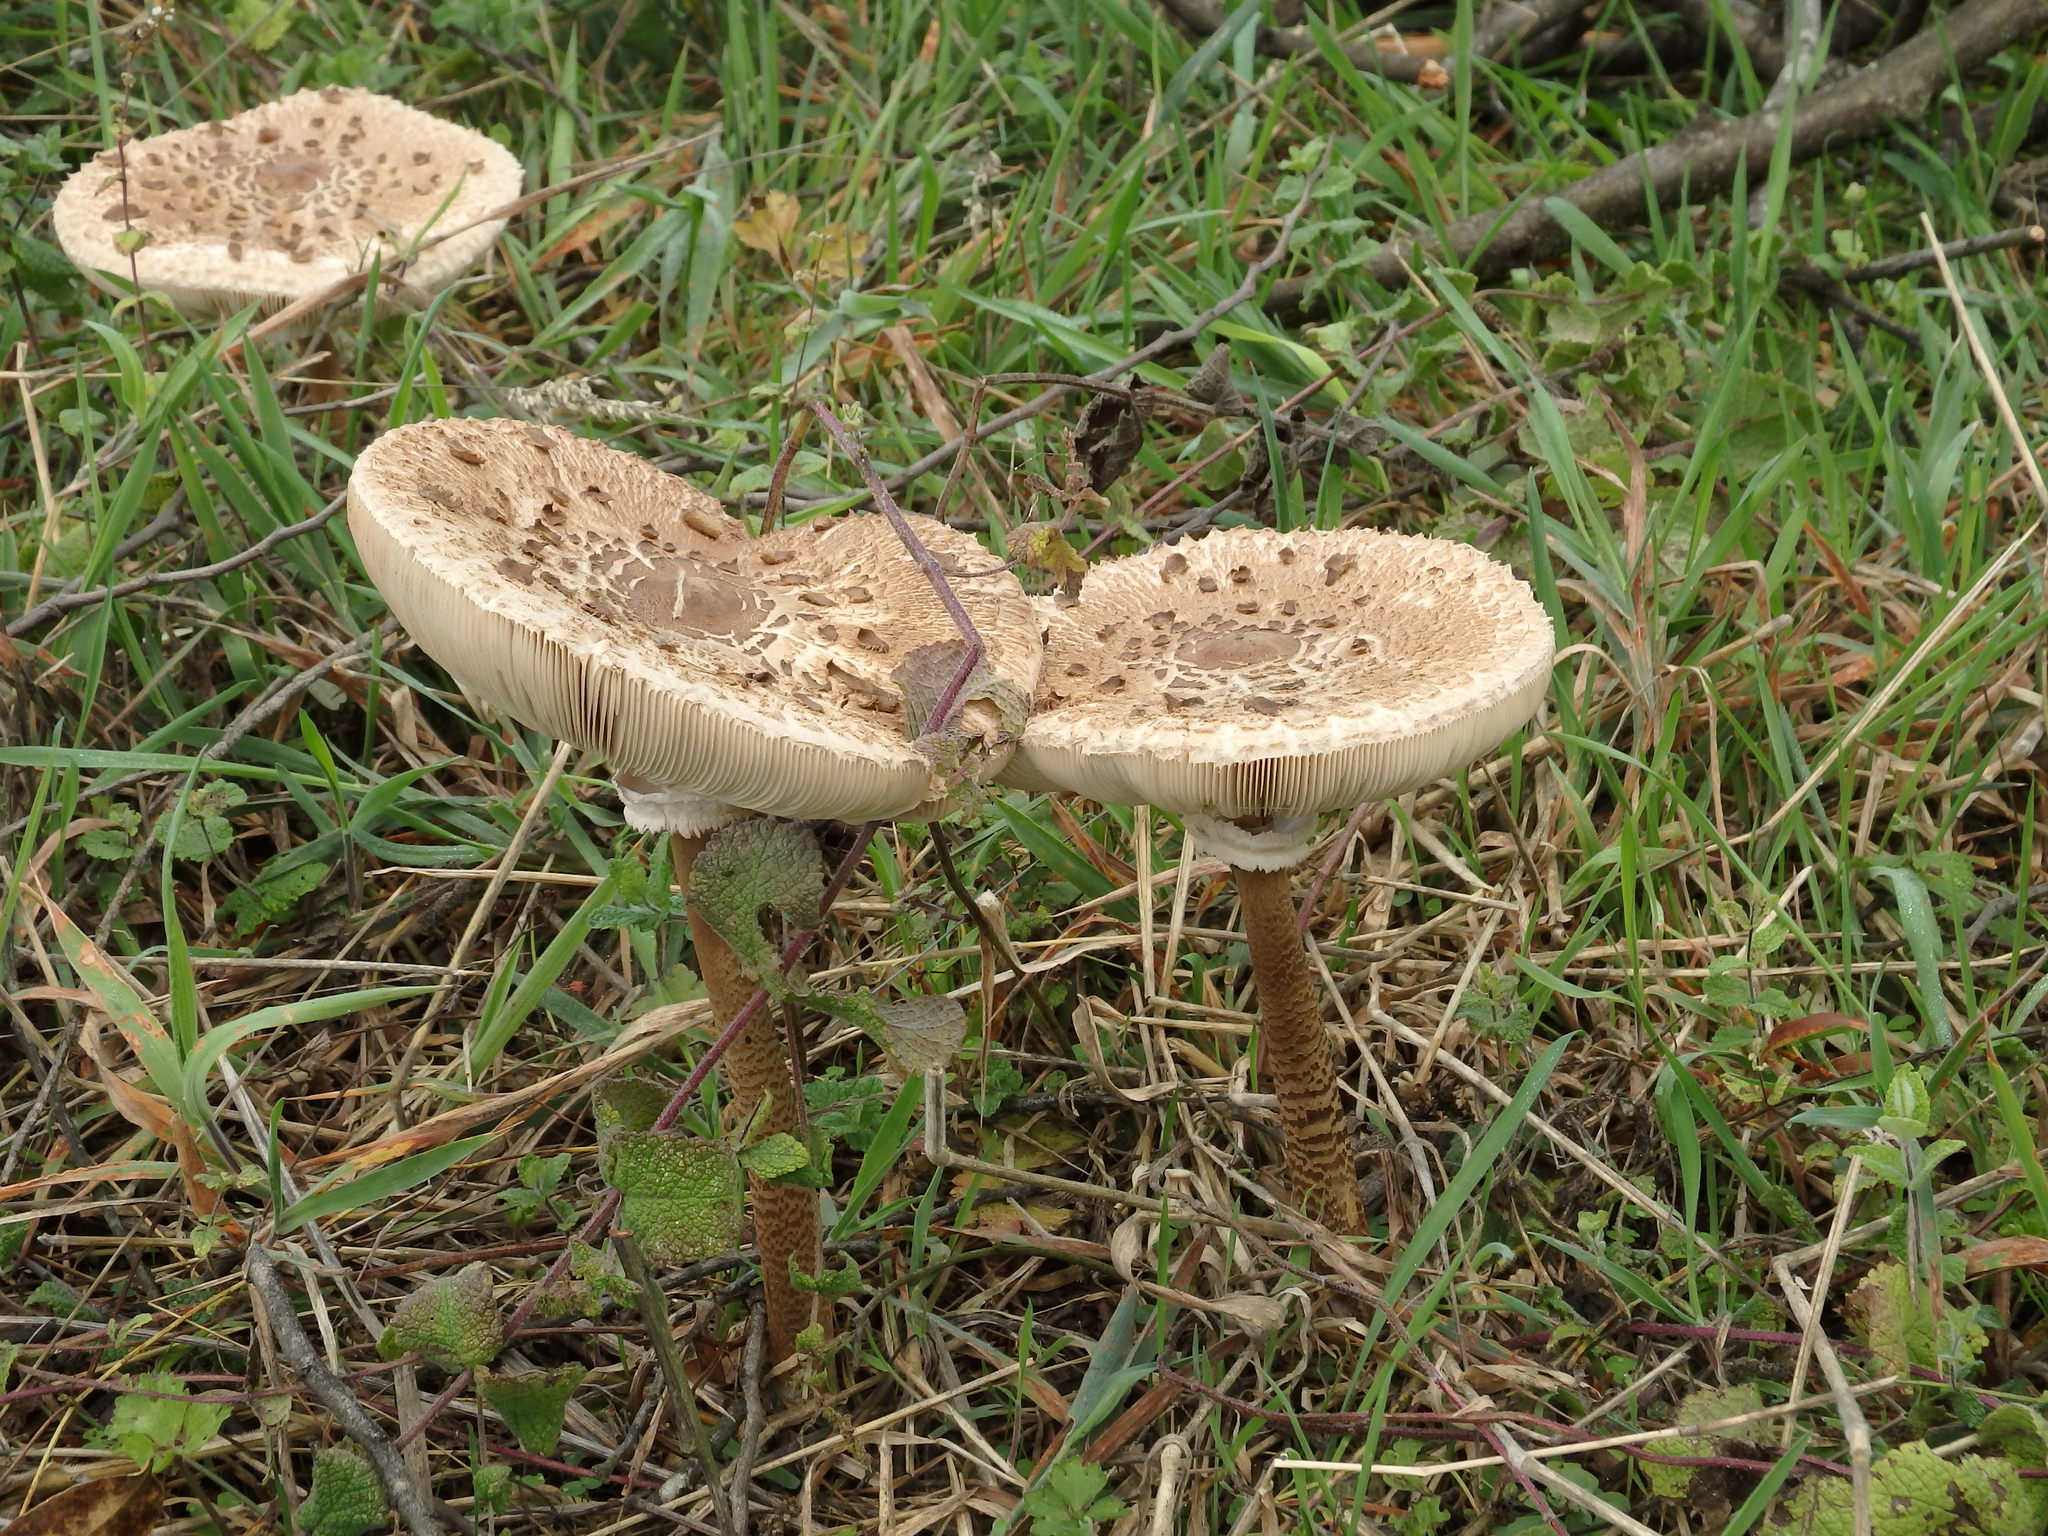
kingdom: Fungi
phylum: Basidiomycota
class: Agaricomycetes
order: Agaricales
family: Agaricaceae
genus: Macrolepiota
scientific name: Macrolepiota procera
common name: Parasol
